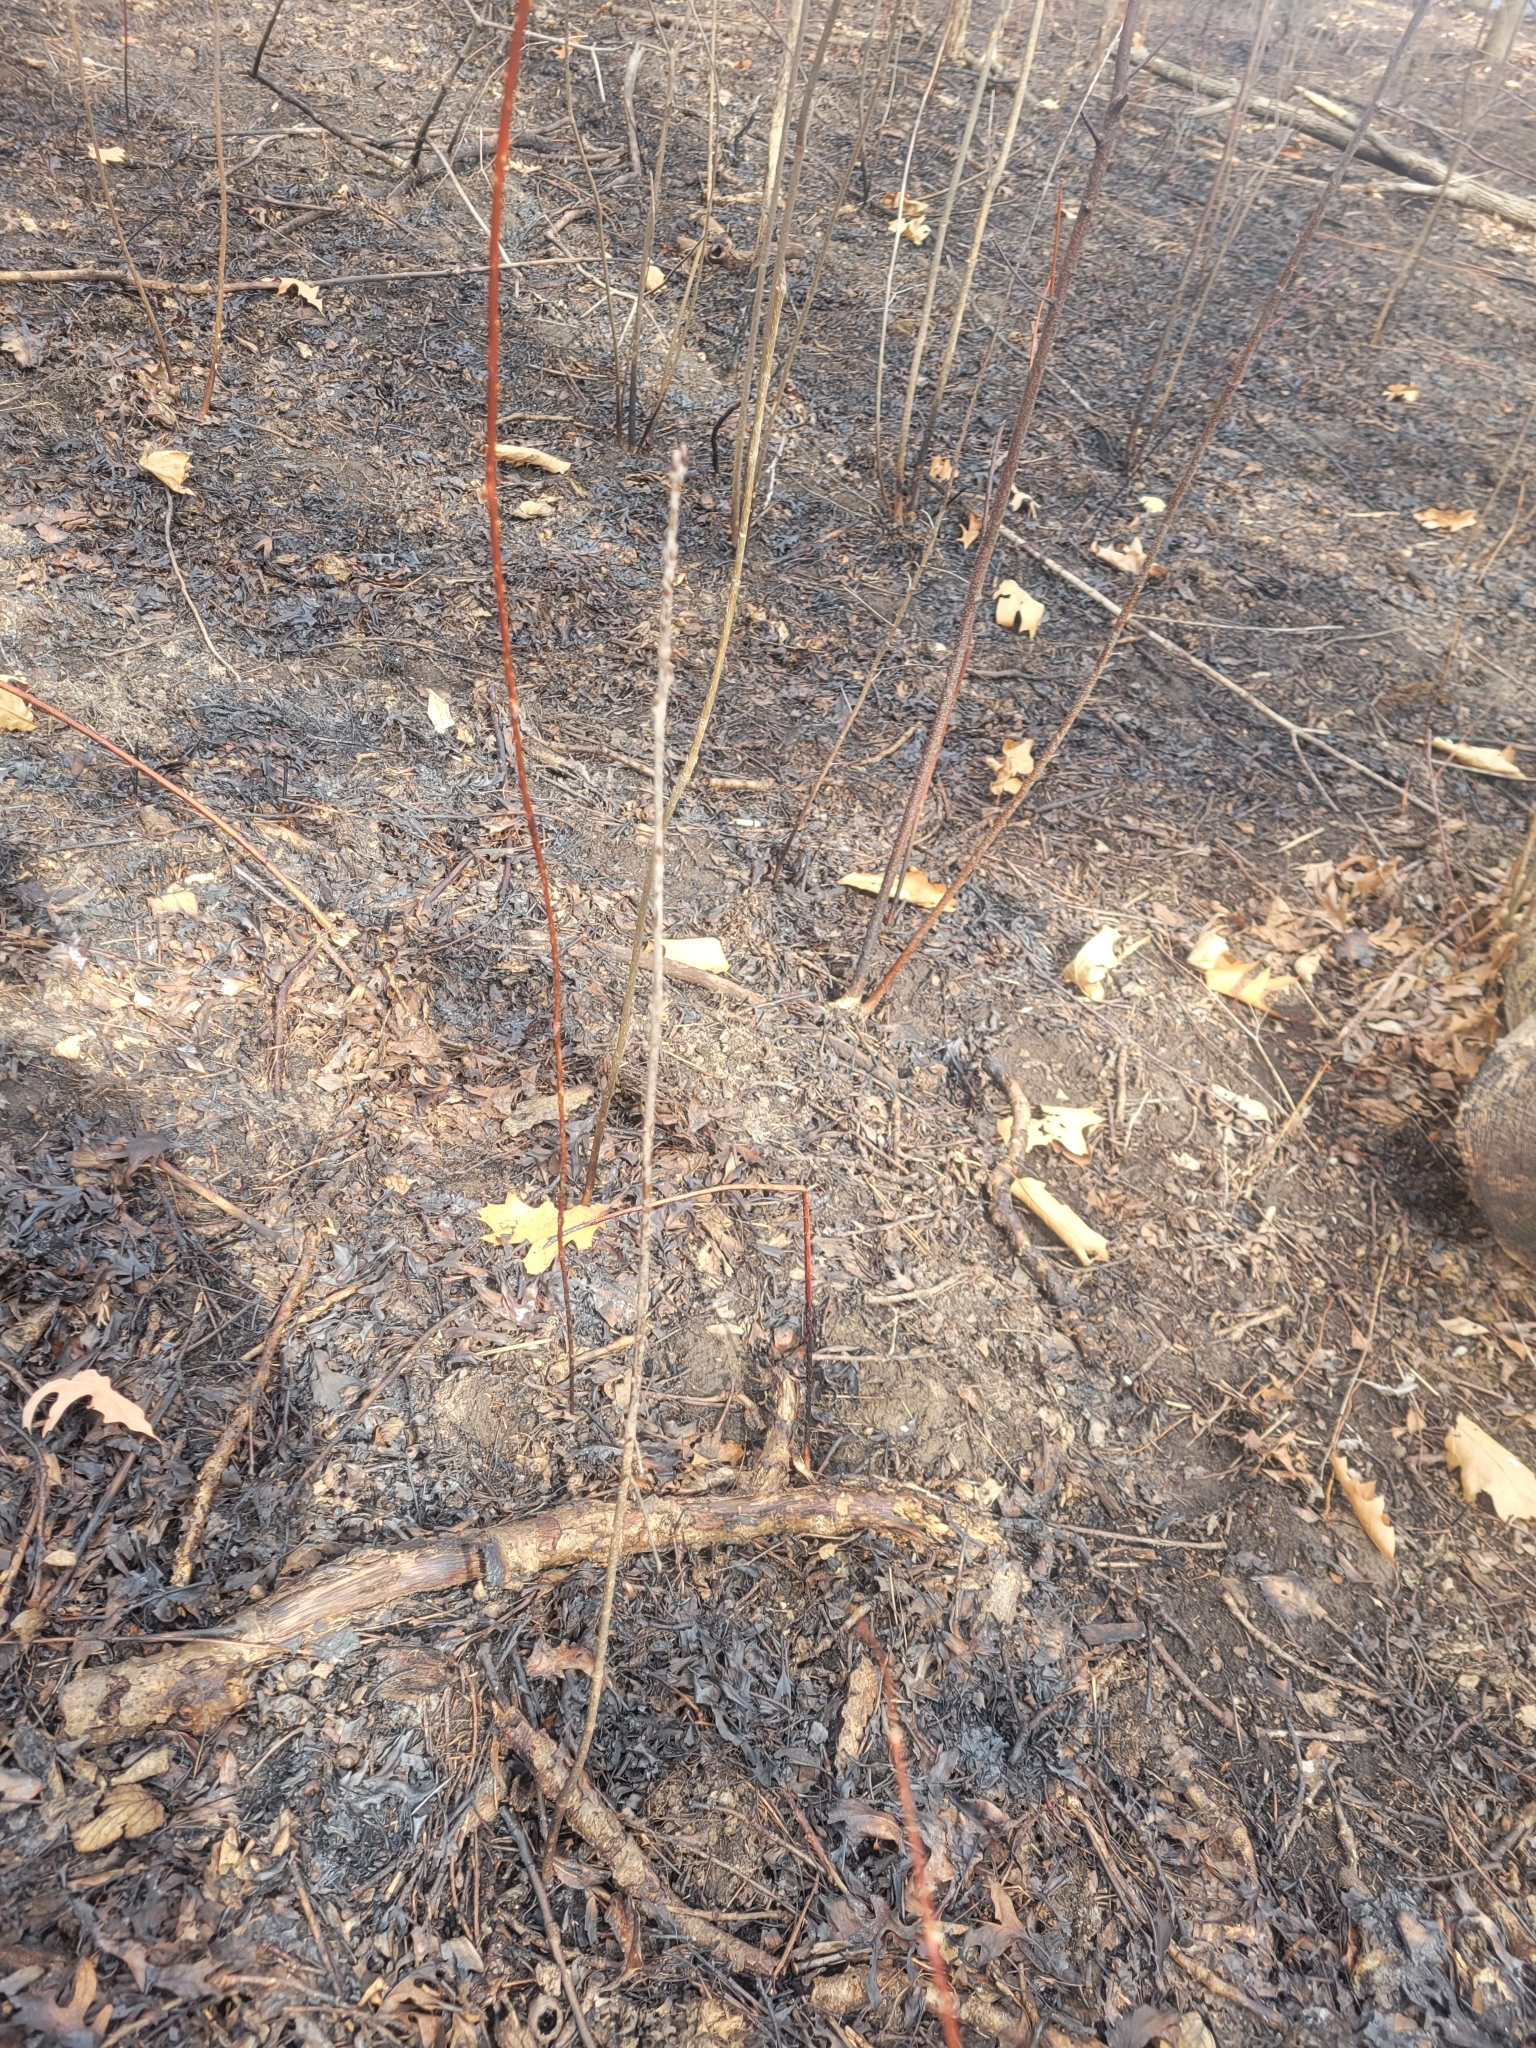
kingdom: Plantae
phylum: Tracheophyta
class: Magnoliopsida
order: Rosales
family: Rhamnaceae
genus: Rhamnus
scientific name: Rhamnus cathartica
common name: Common buckthorn
